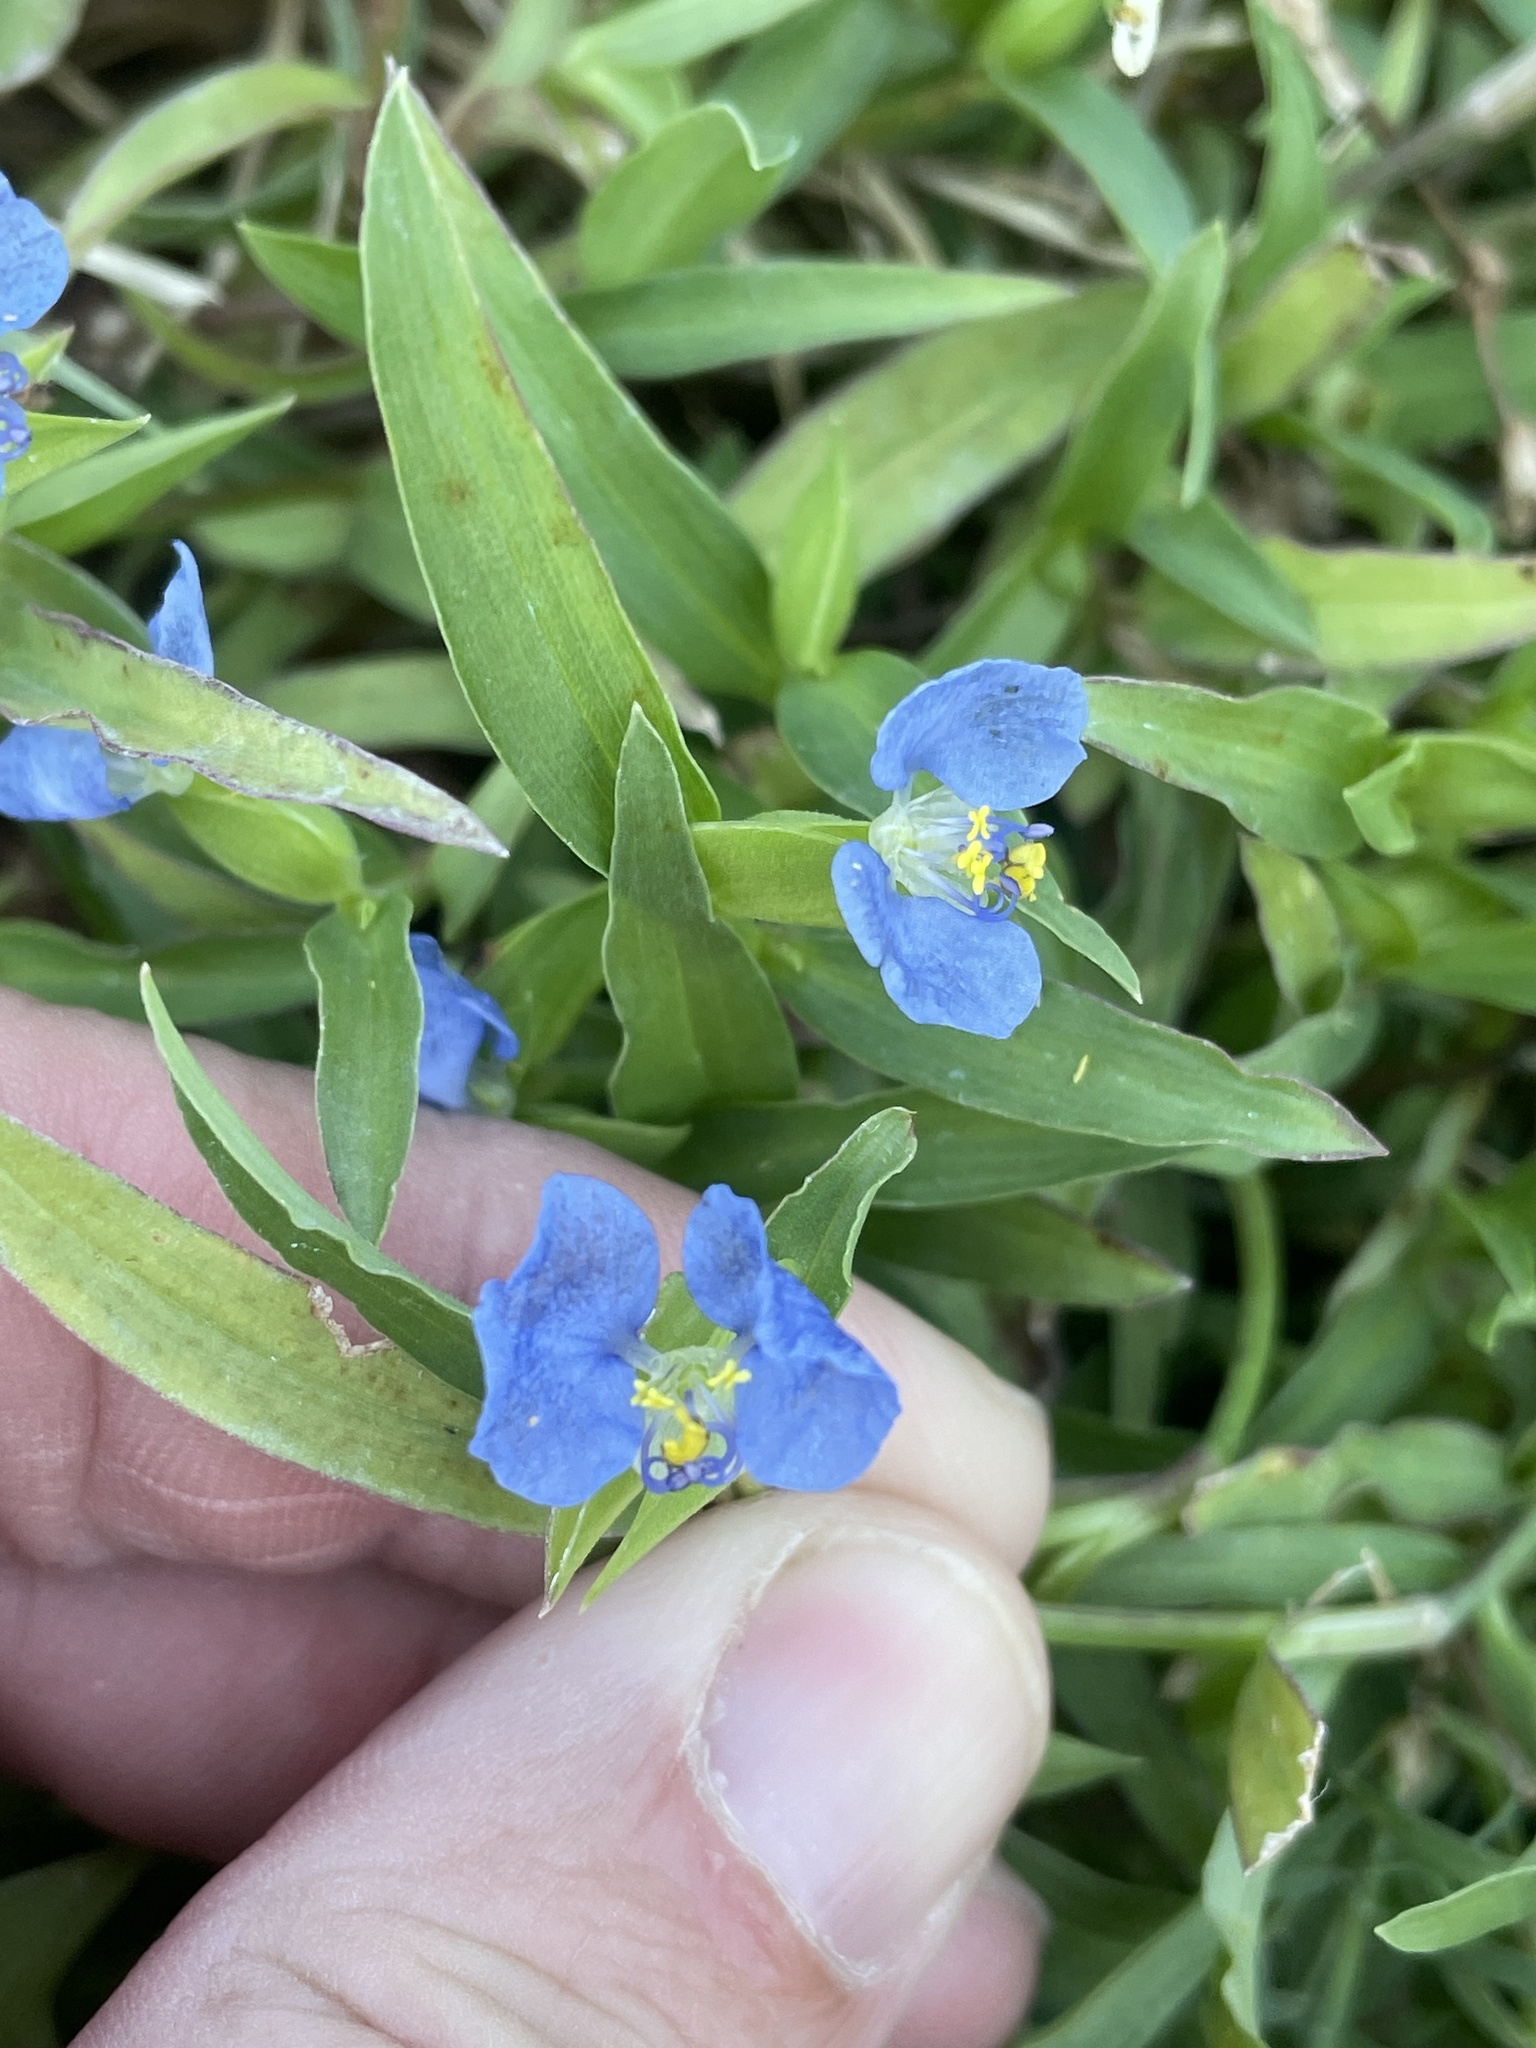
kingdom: Plantae
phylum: Tracheophyta
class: Liliopsida
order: Commelinales
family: Commelinaceae
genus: Commelina
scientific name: Commelina erecta
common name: Blousel blommetjie
